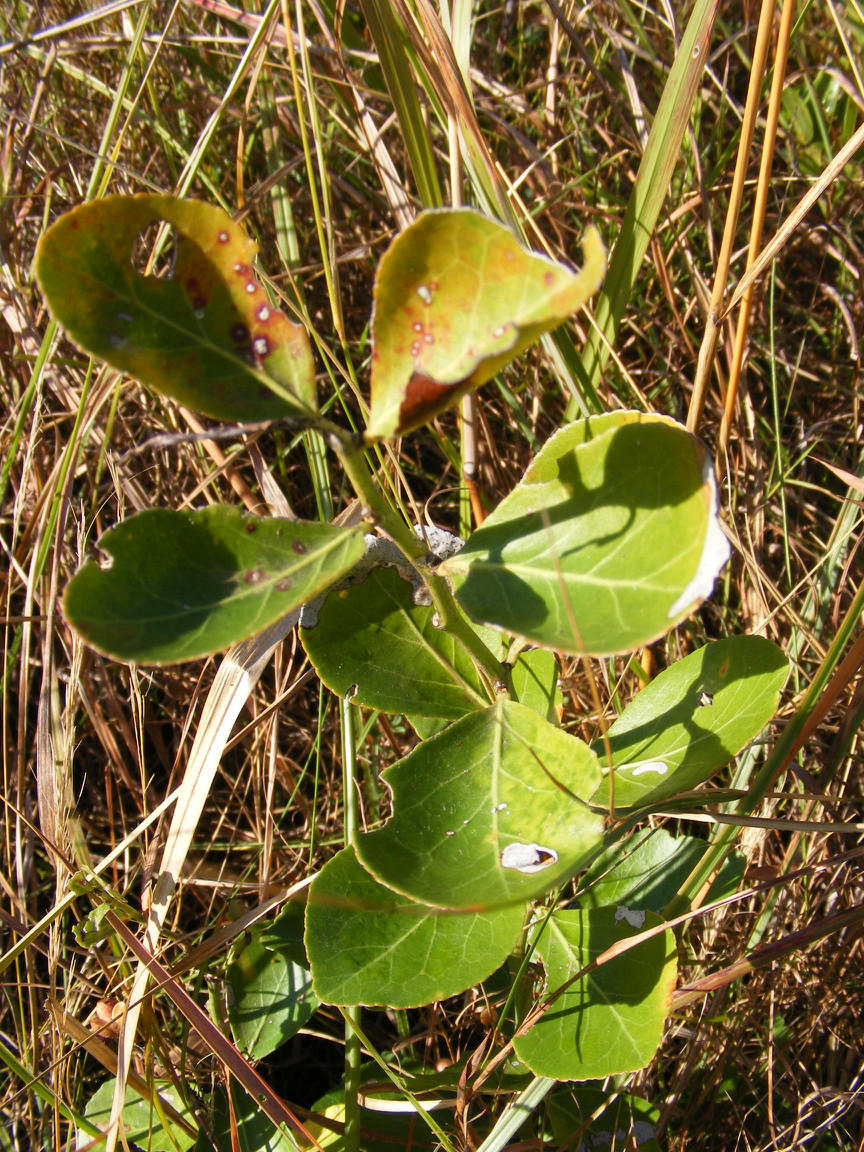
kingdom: Plantae
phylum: Tracheophyta
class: Magnoliopsida
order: Celastrales
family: Celastraceae
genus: Gymnosporia
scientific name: Gymnosporia markwardii
